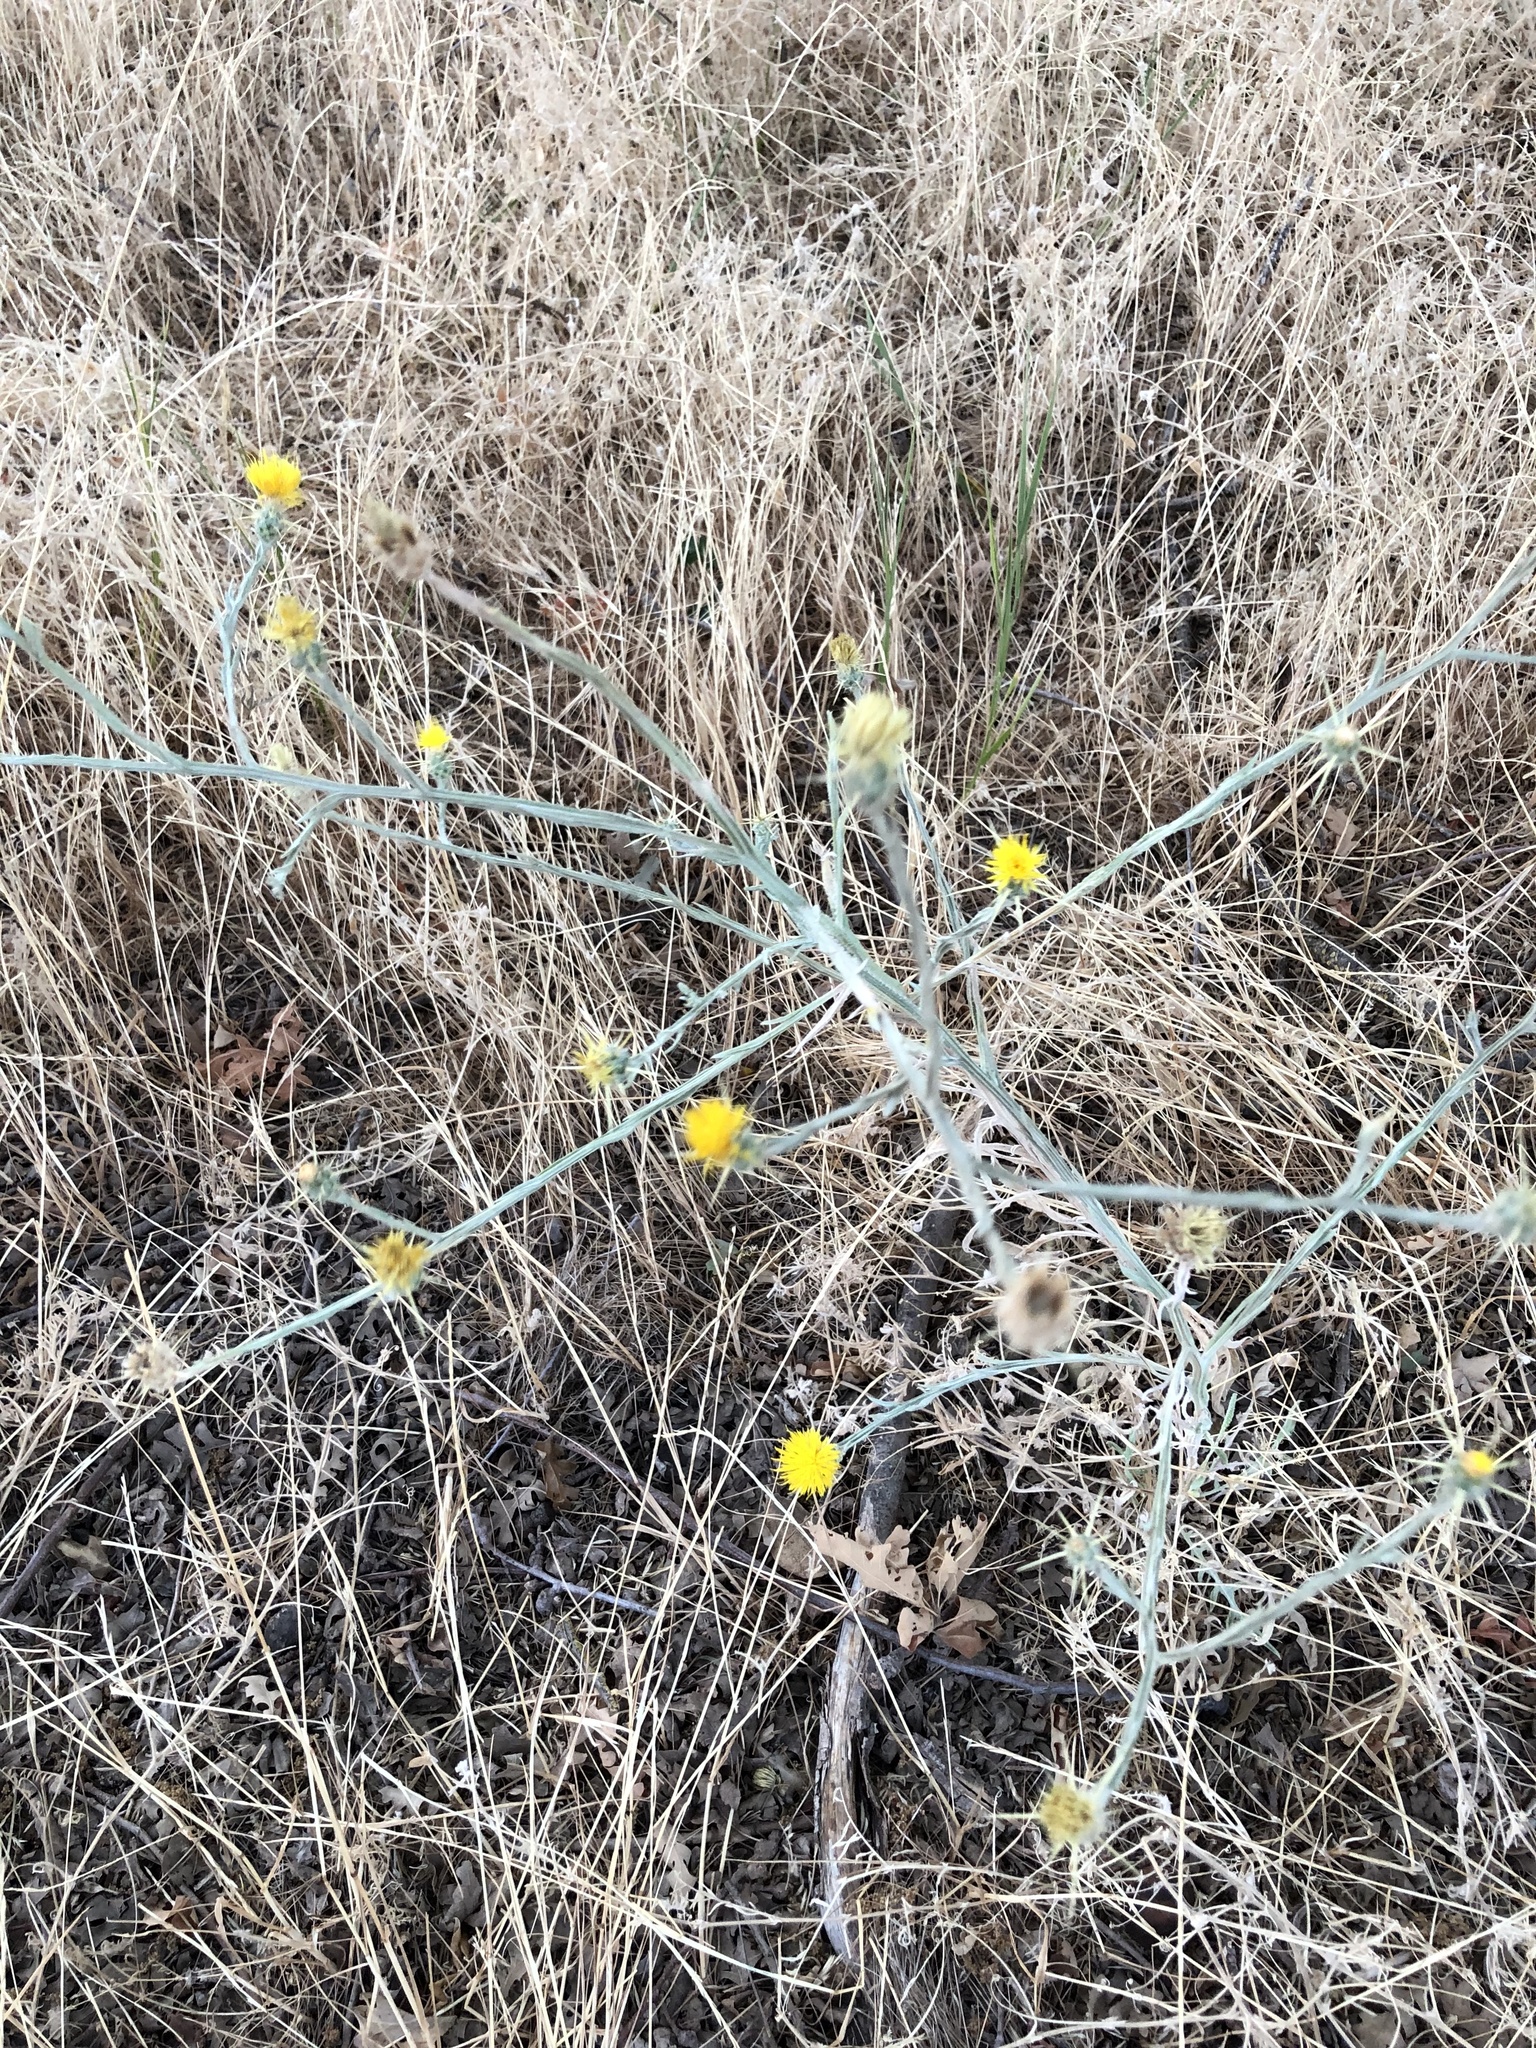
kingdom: Plantae
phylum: Tracheophyta
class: Magnoliopsida
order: Asterales
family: Asteraceae
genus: Centaurea
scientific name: Centaurea solstitialis
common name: Yellow star-thistle
